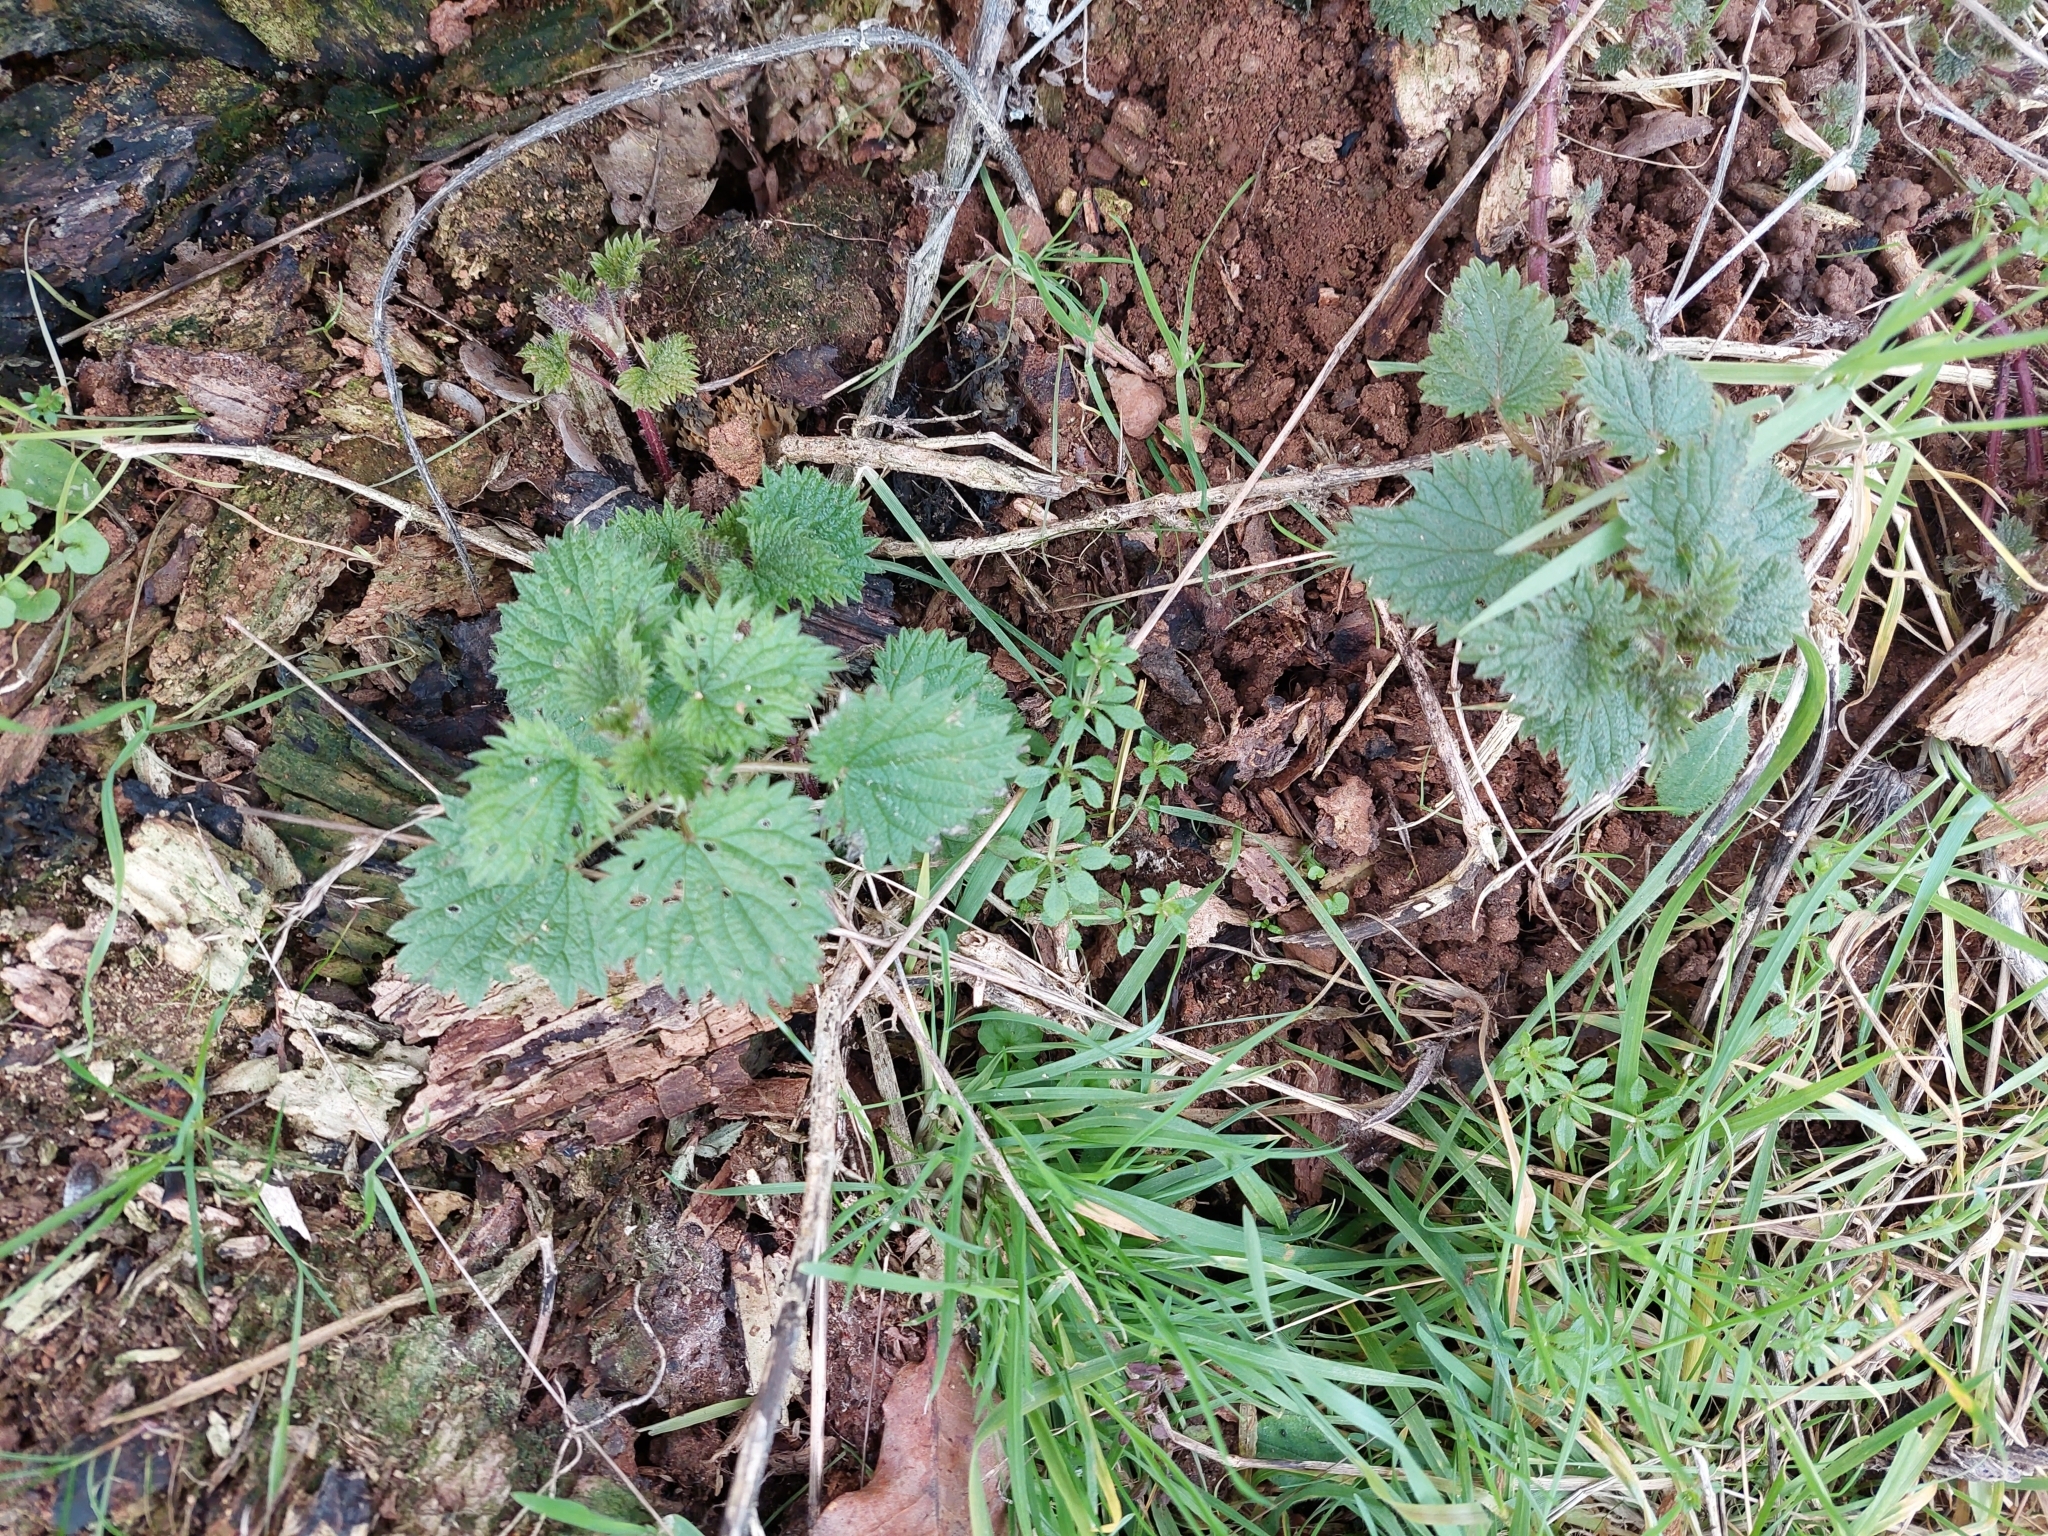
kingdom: Plantae
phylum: Tracheophyta
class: Magnoliopsida
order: Rosales
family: Urticaceae
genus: Urtica
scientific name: Urtica dioica
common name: Common nettle
